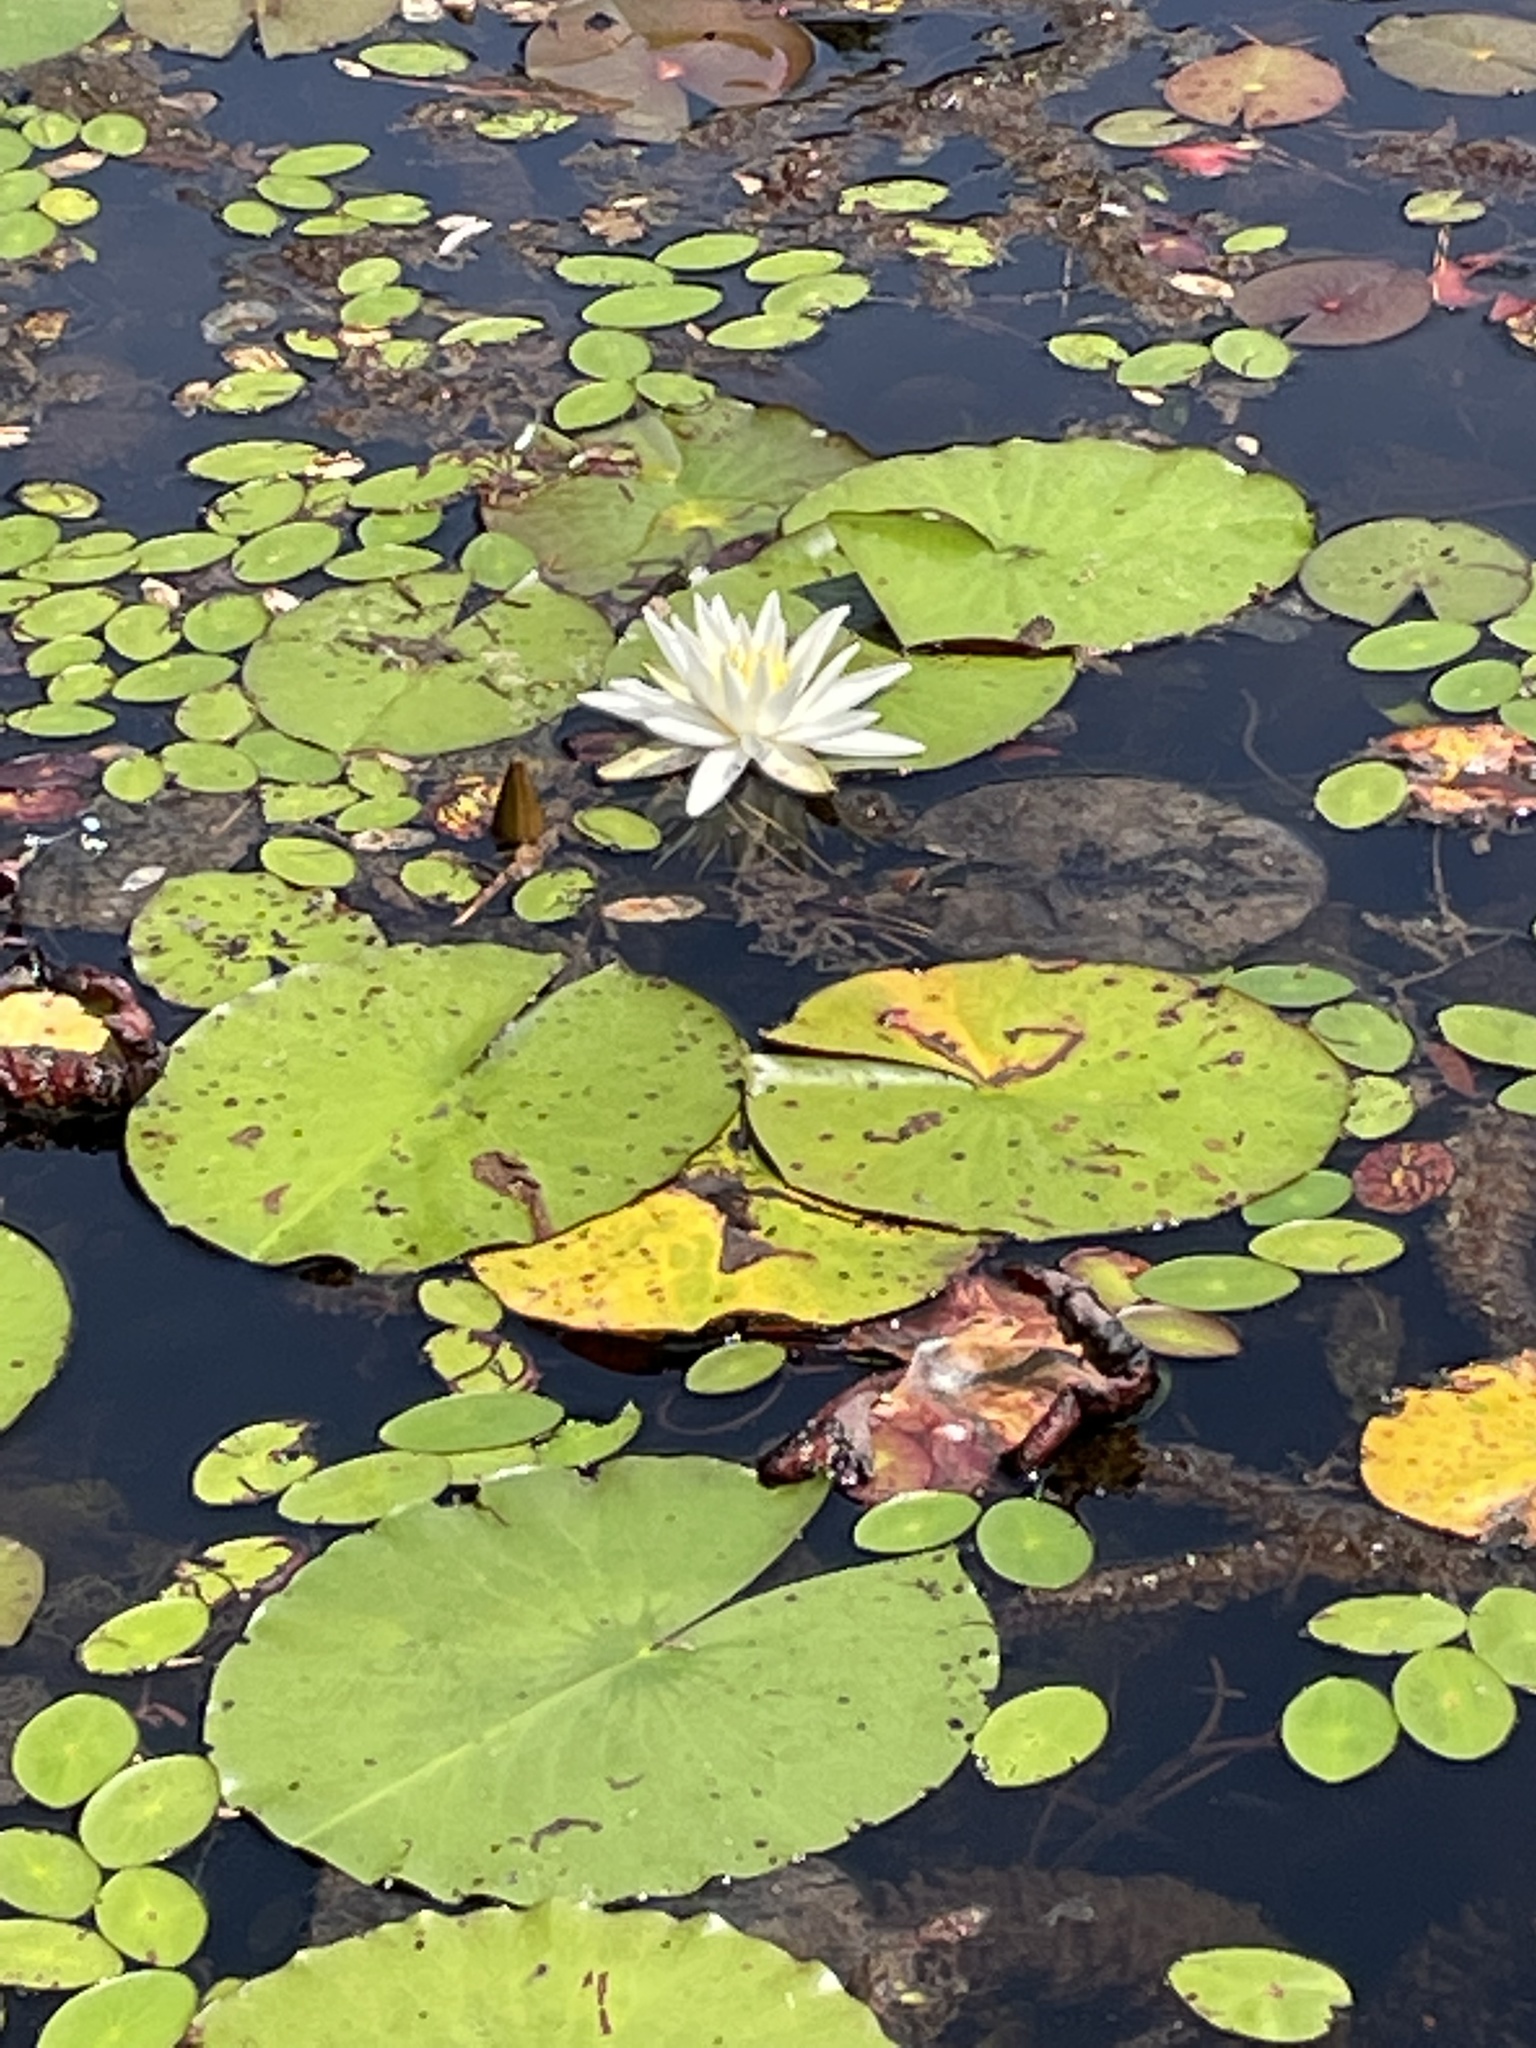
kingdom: Plantae
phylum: Tracheophyta
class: Magnoliopsida
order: Nymphaeales
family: Nymphaeaceae
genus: Nymphaea
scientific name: Nymphaea odorata
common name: Fragrant water-lily
